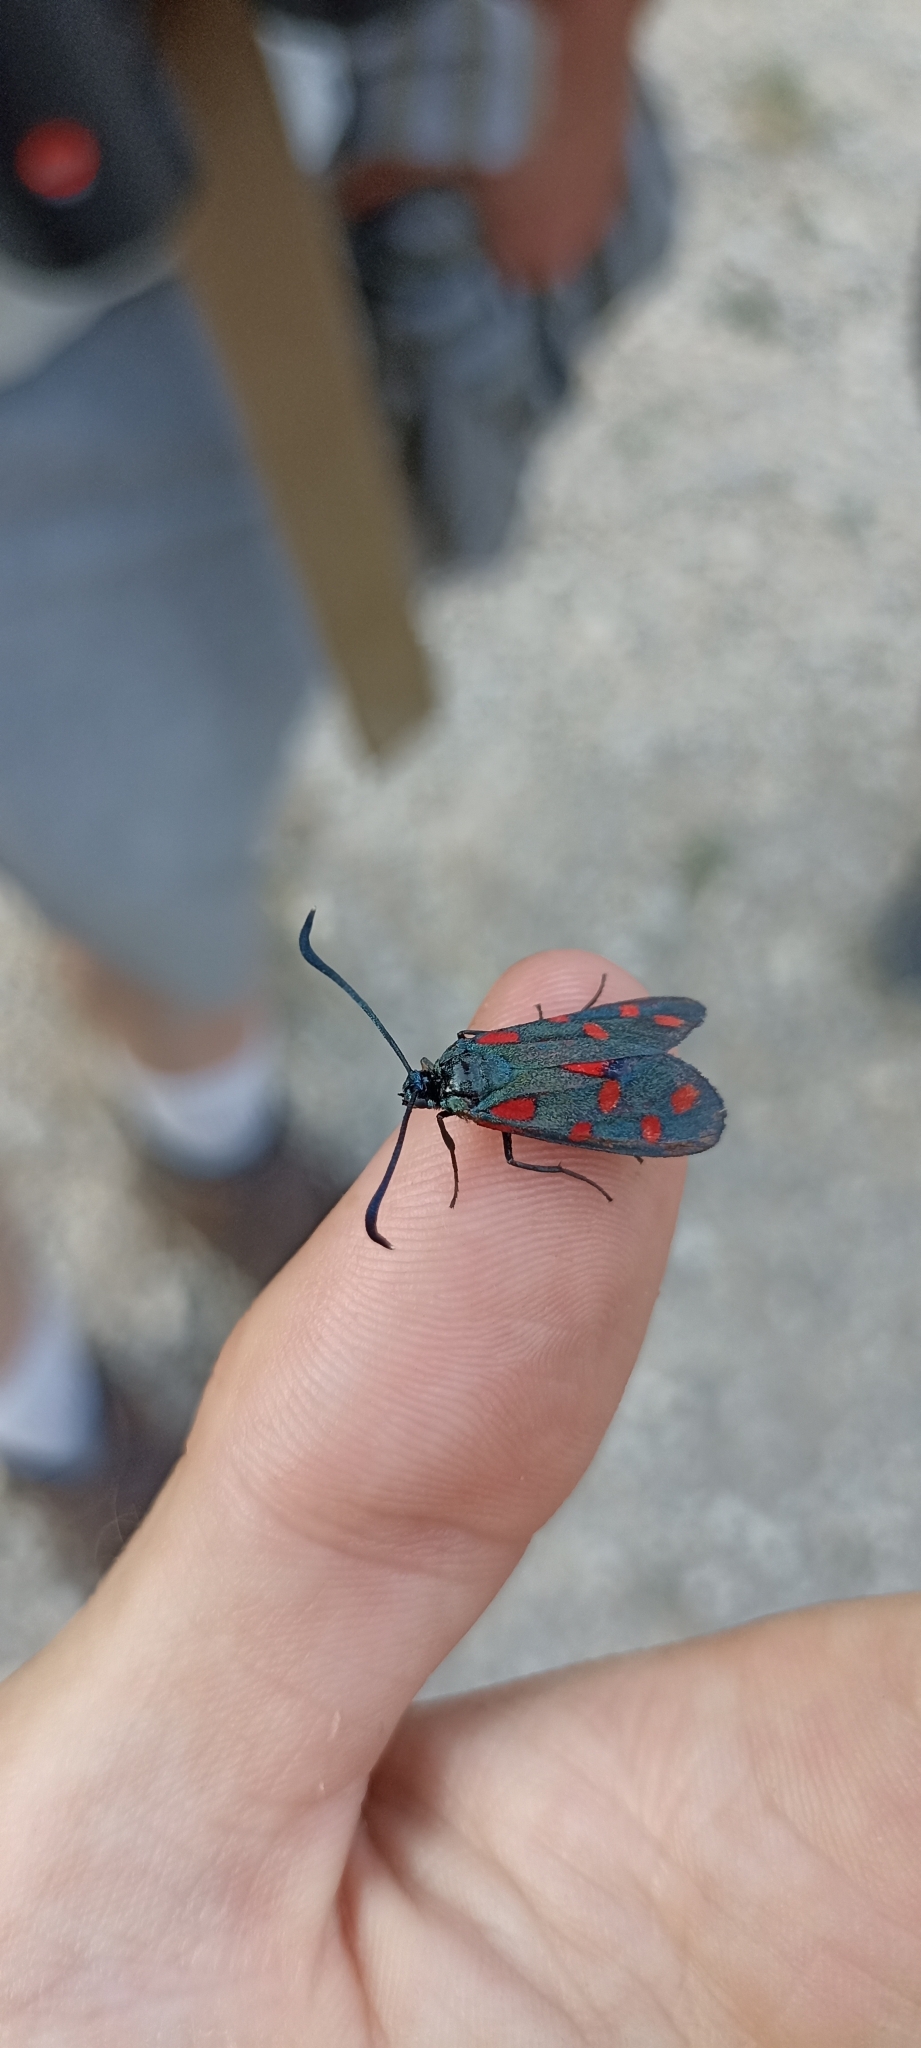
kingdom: Animalia
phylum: Arthropoda
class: Insecta
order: Lepidoptera
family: Zygaenidae
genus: Zygaena
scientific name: Zygaena transalpina
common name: Southern six spot burnet
